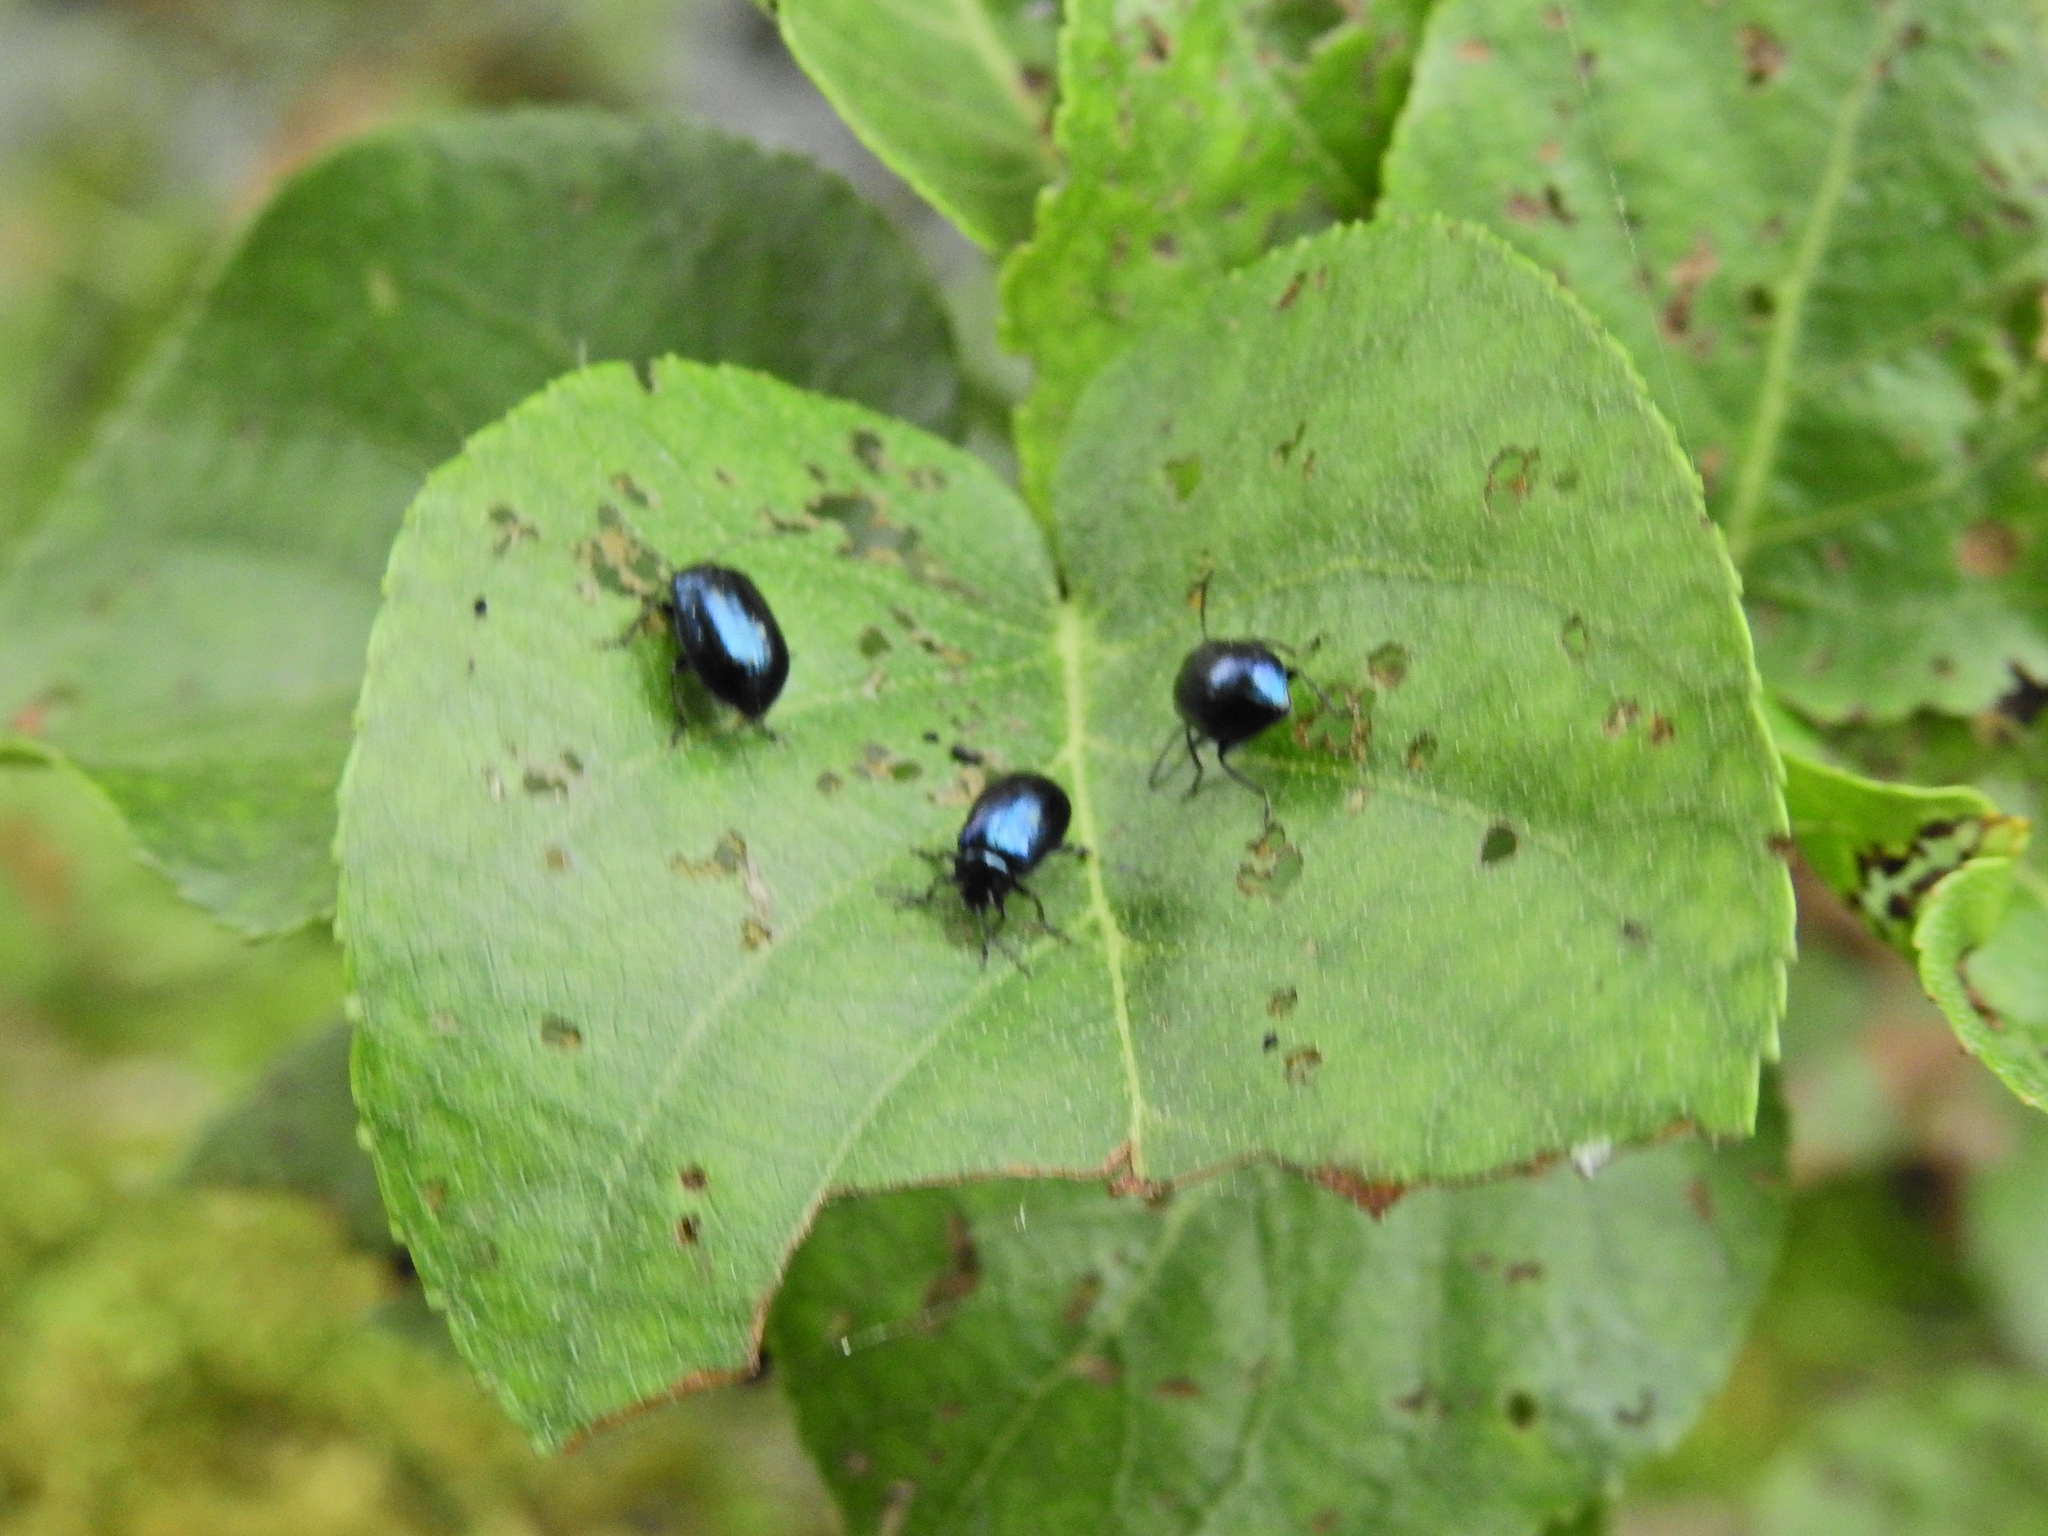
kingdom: Animalia
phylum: Arthropoda
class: Insecta
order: Coleoptera
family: Chrysomelidae
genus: Agelastica
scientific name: Agelastica alni
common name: Alder leaf beetle
